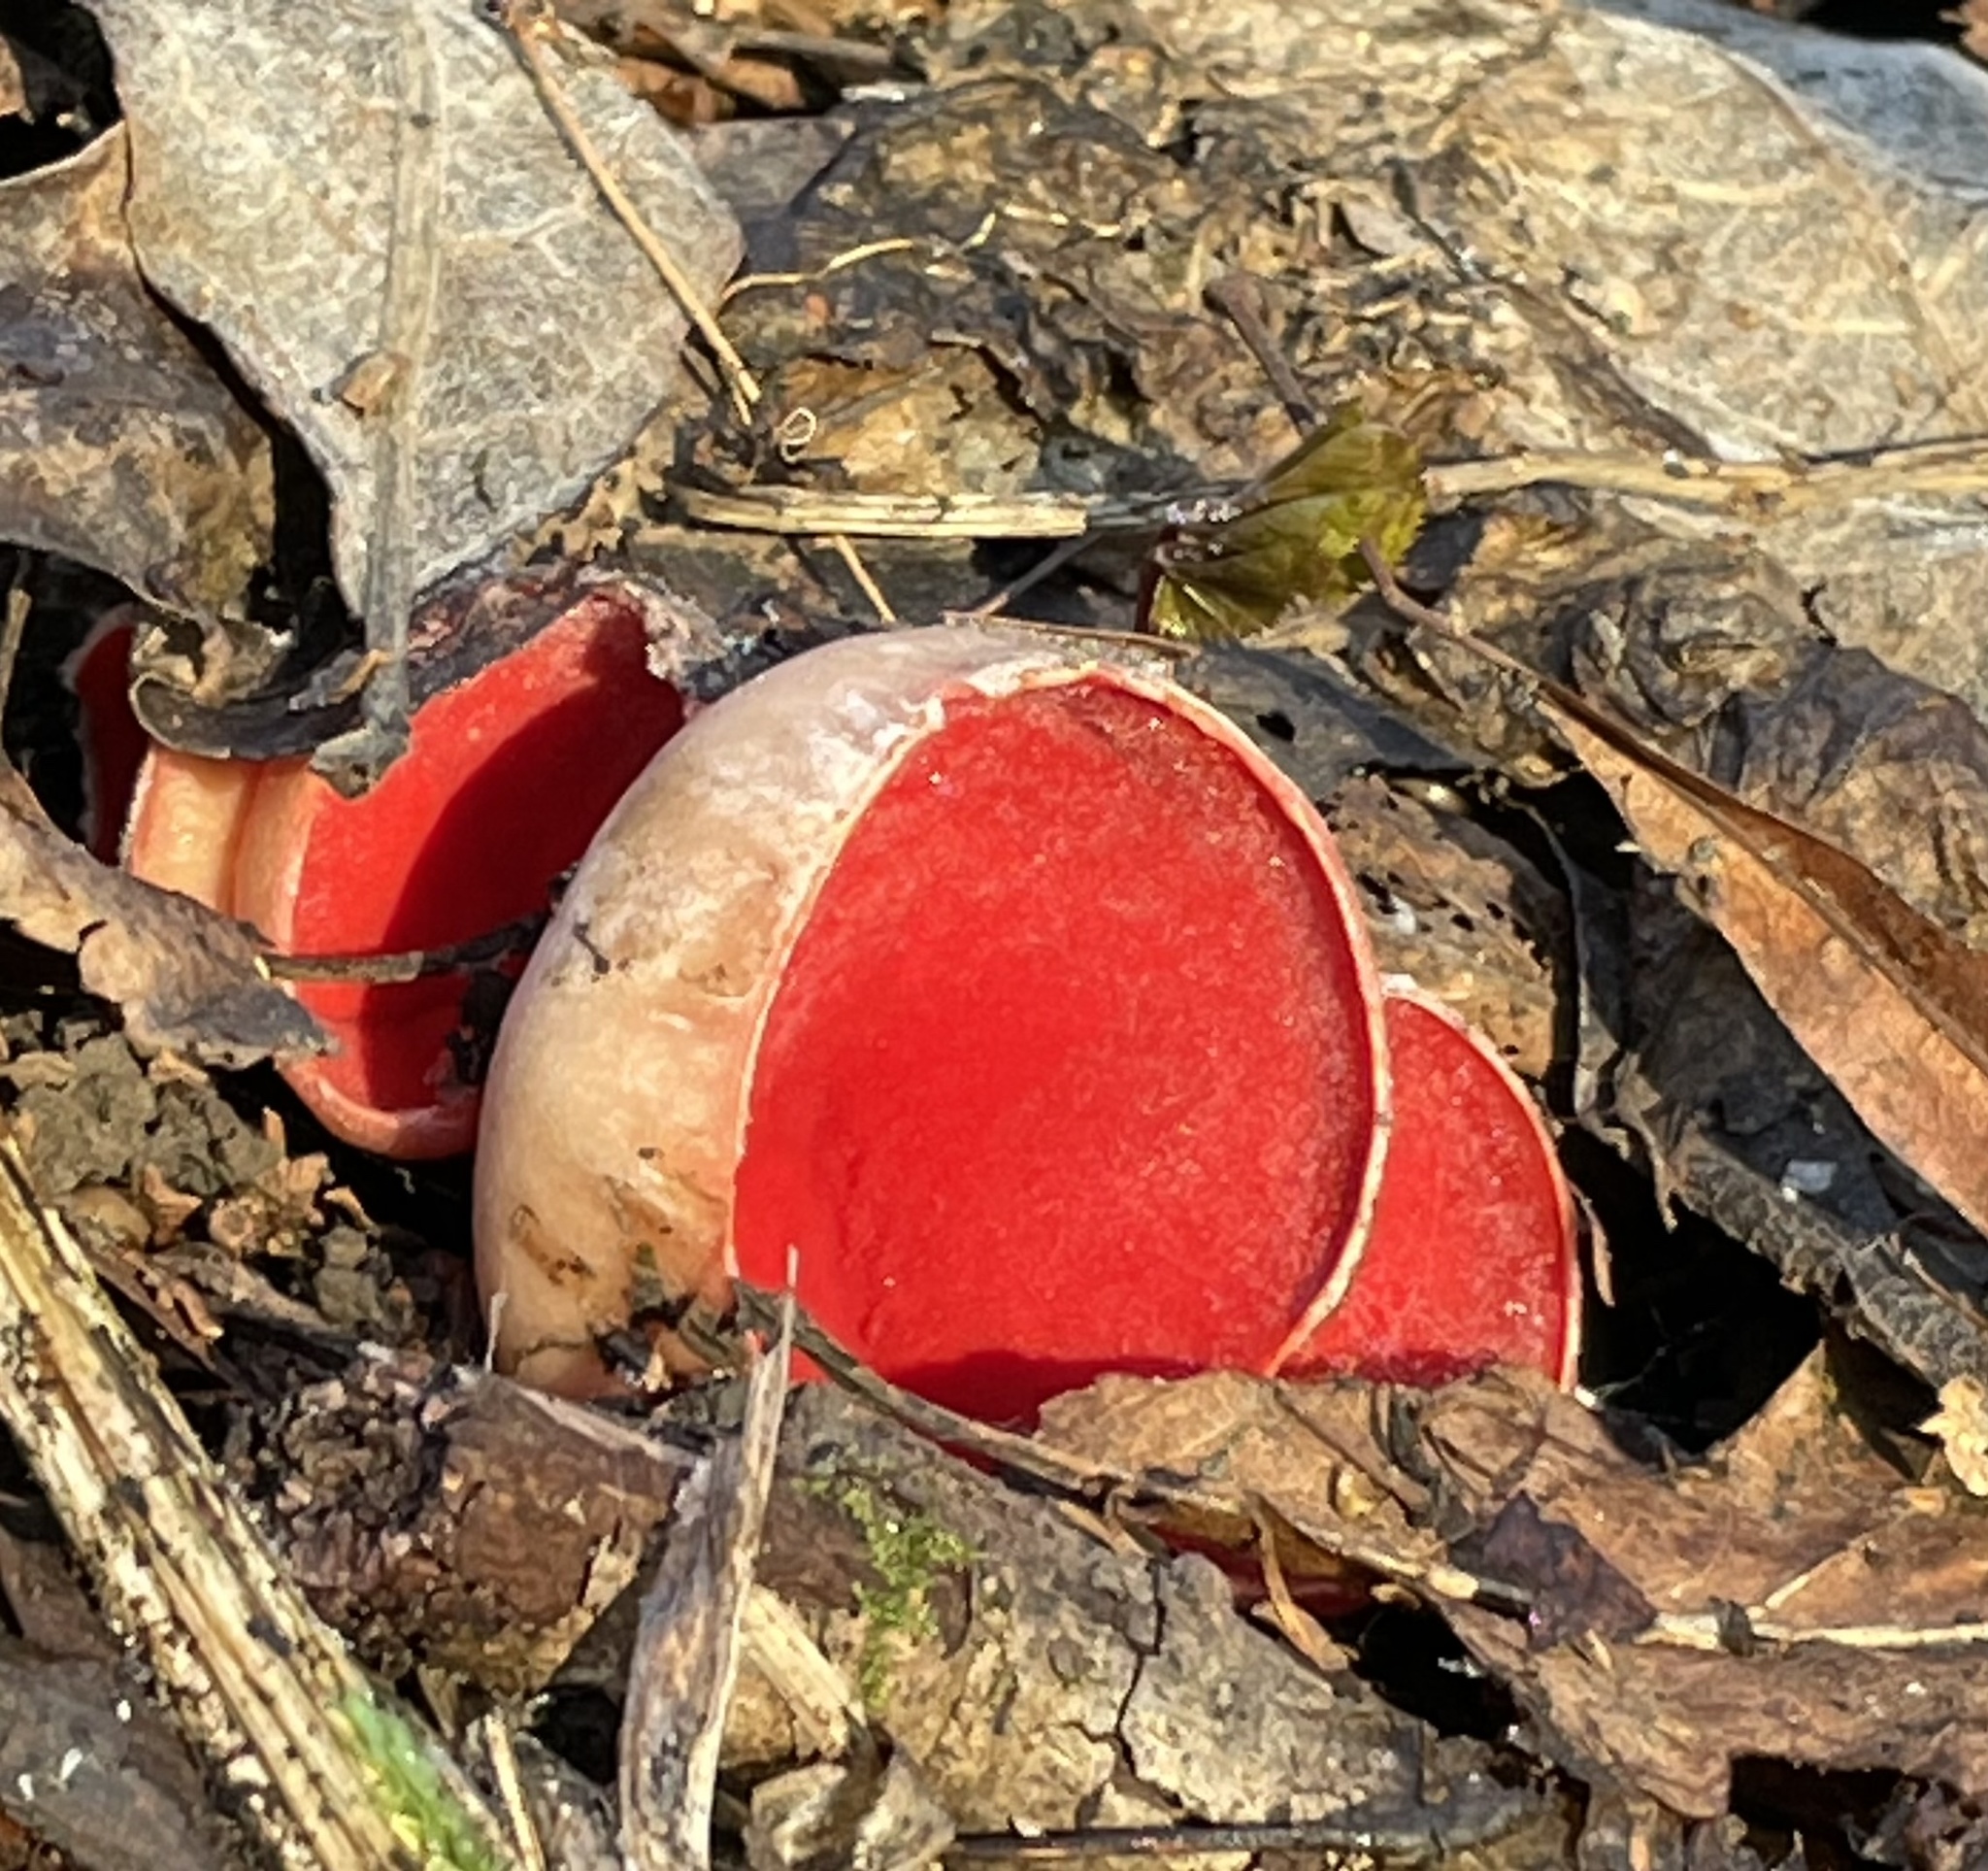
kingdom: Fungi
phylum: Ascomycota
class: Pezizomycetes
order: Pezizales
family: Sarcoscyphaceae
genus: Sarcoscypha
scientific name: Sarcoscypha austriaca
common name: Scarlet elfcup
